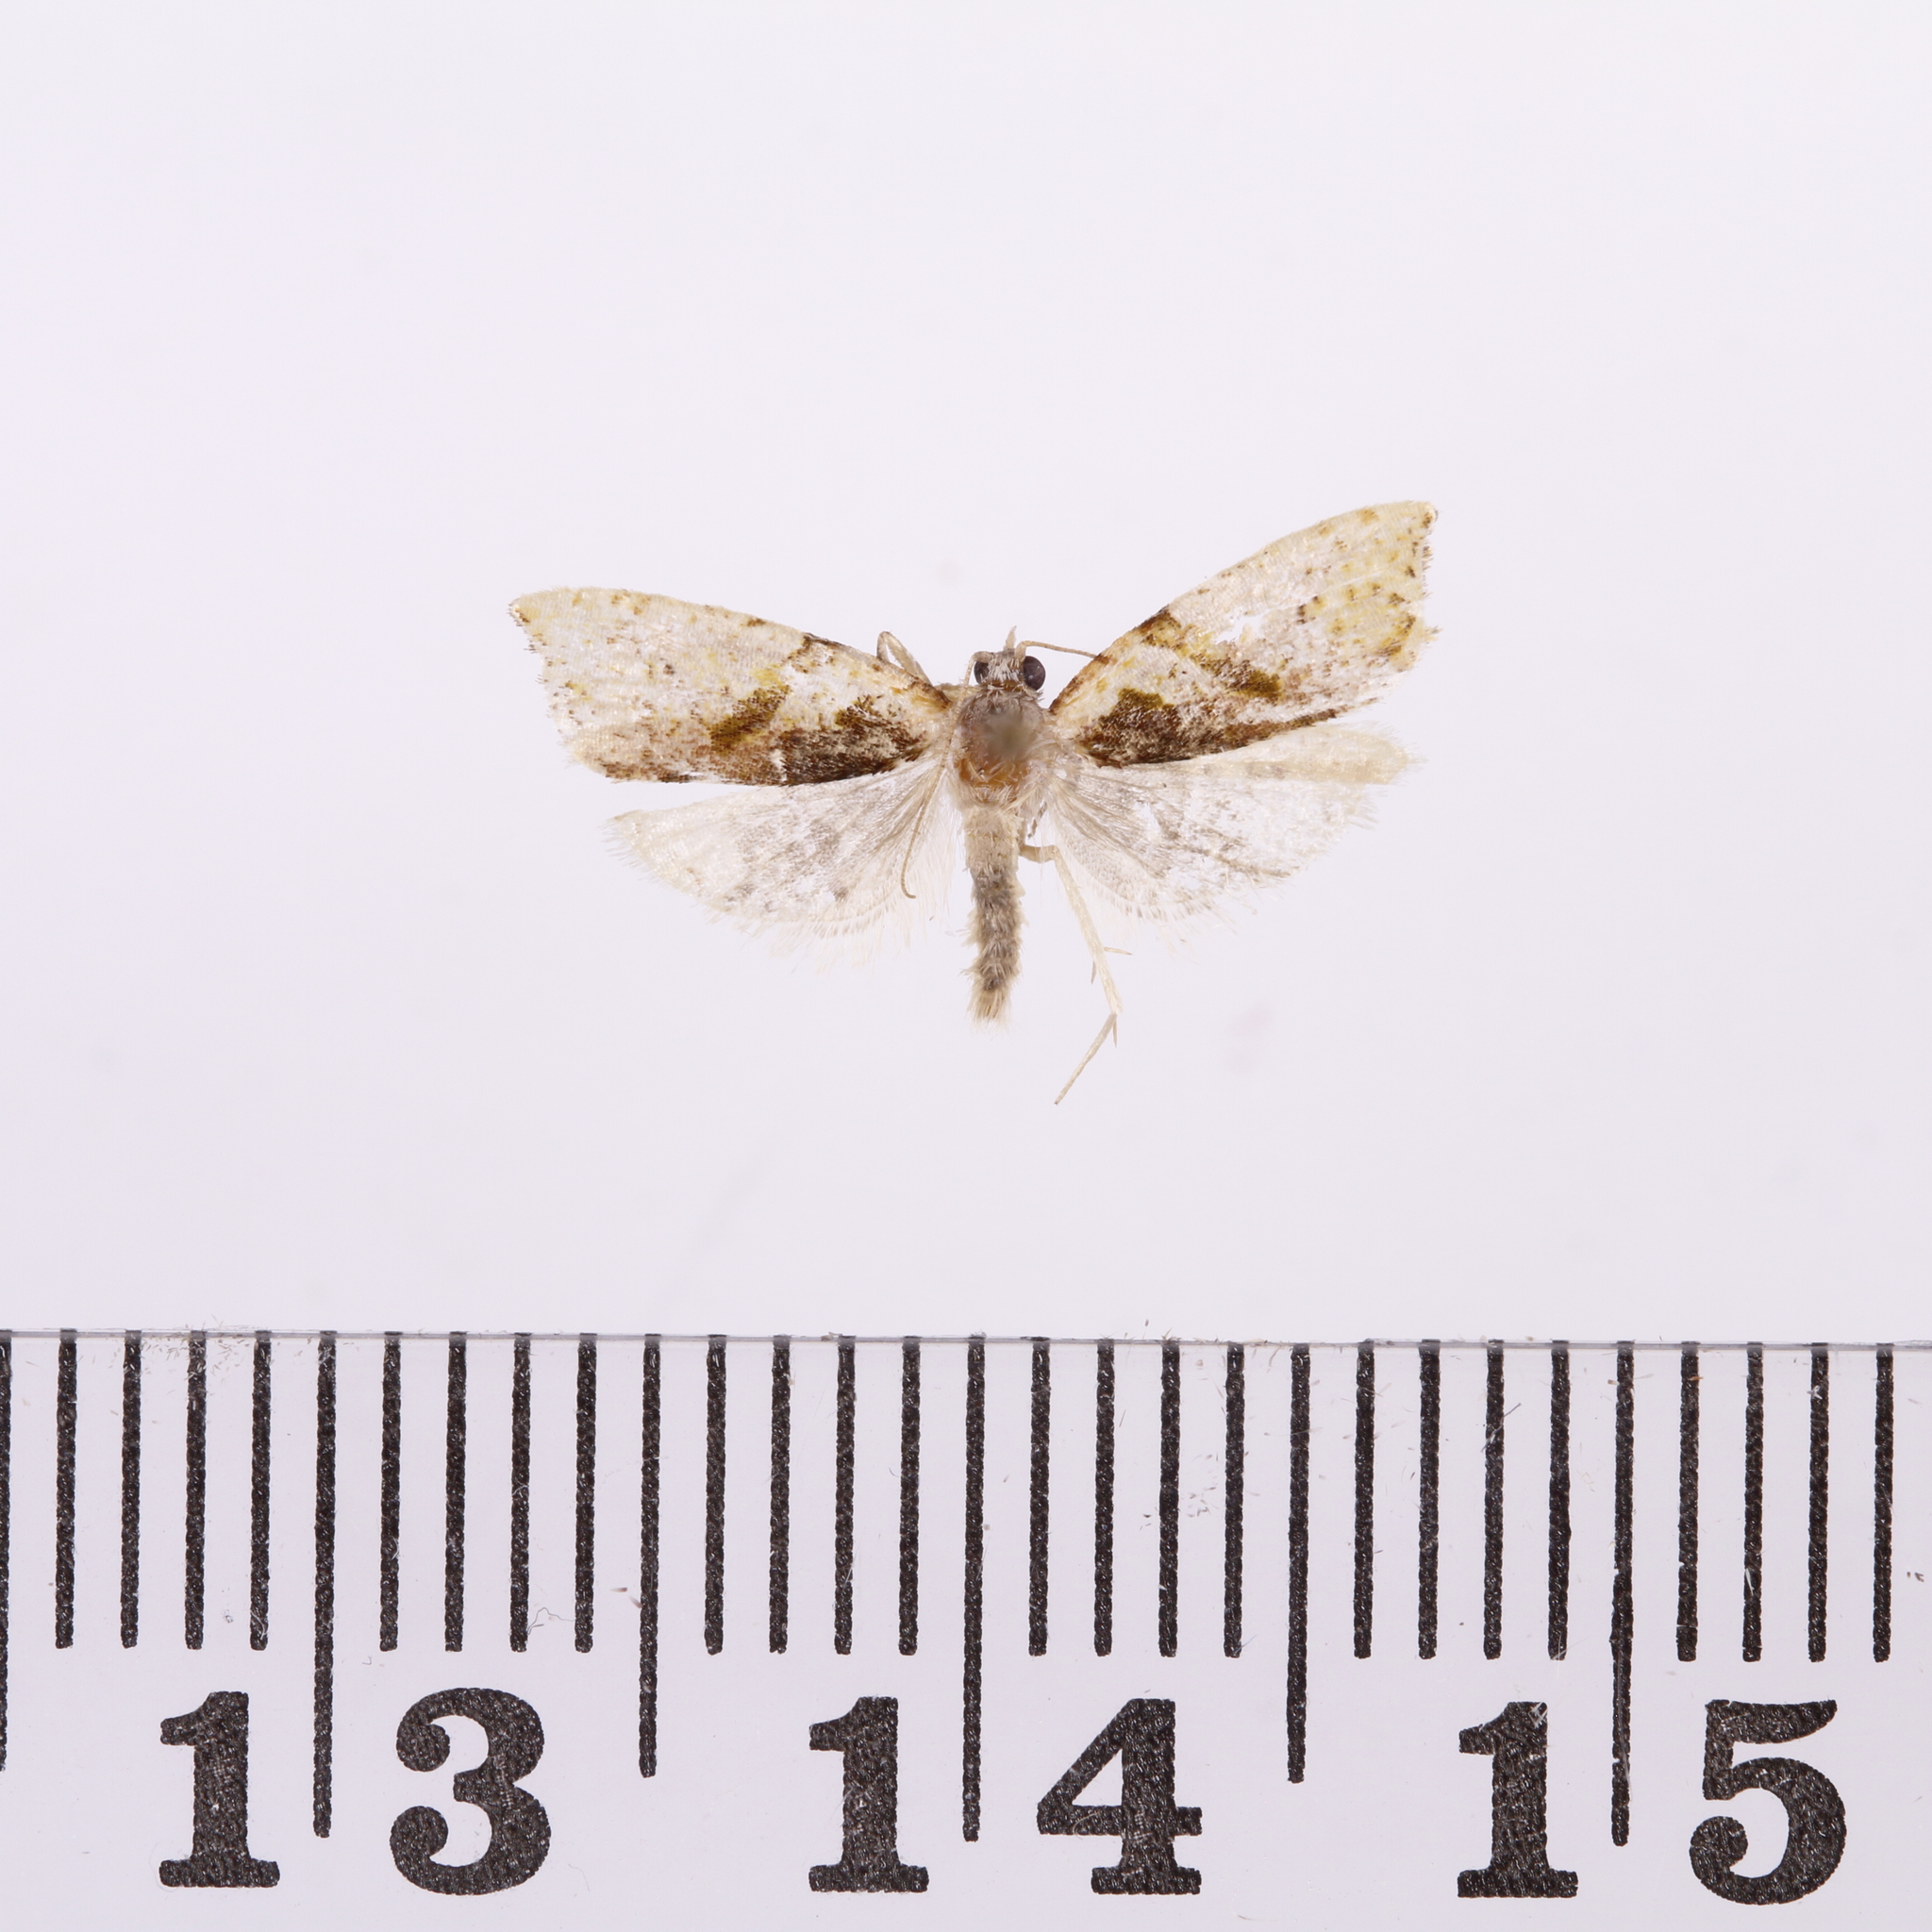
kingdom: Animalia
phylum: Arthropoda
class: Insecta
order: Lepidoptera
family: Tortricidae
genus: Pyrgotis
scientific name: Pyrgotis plagiatana
